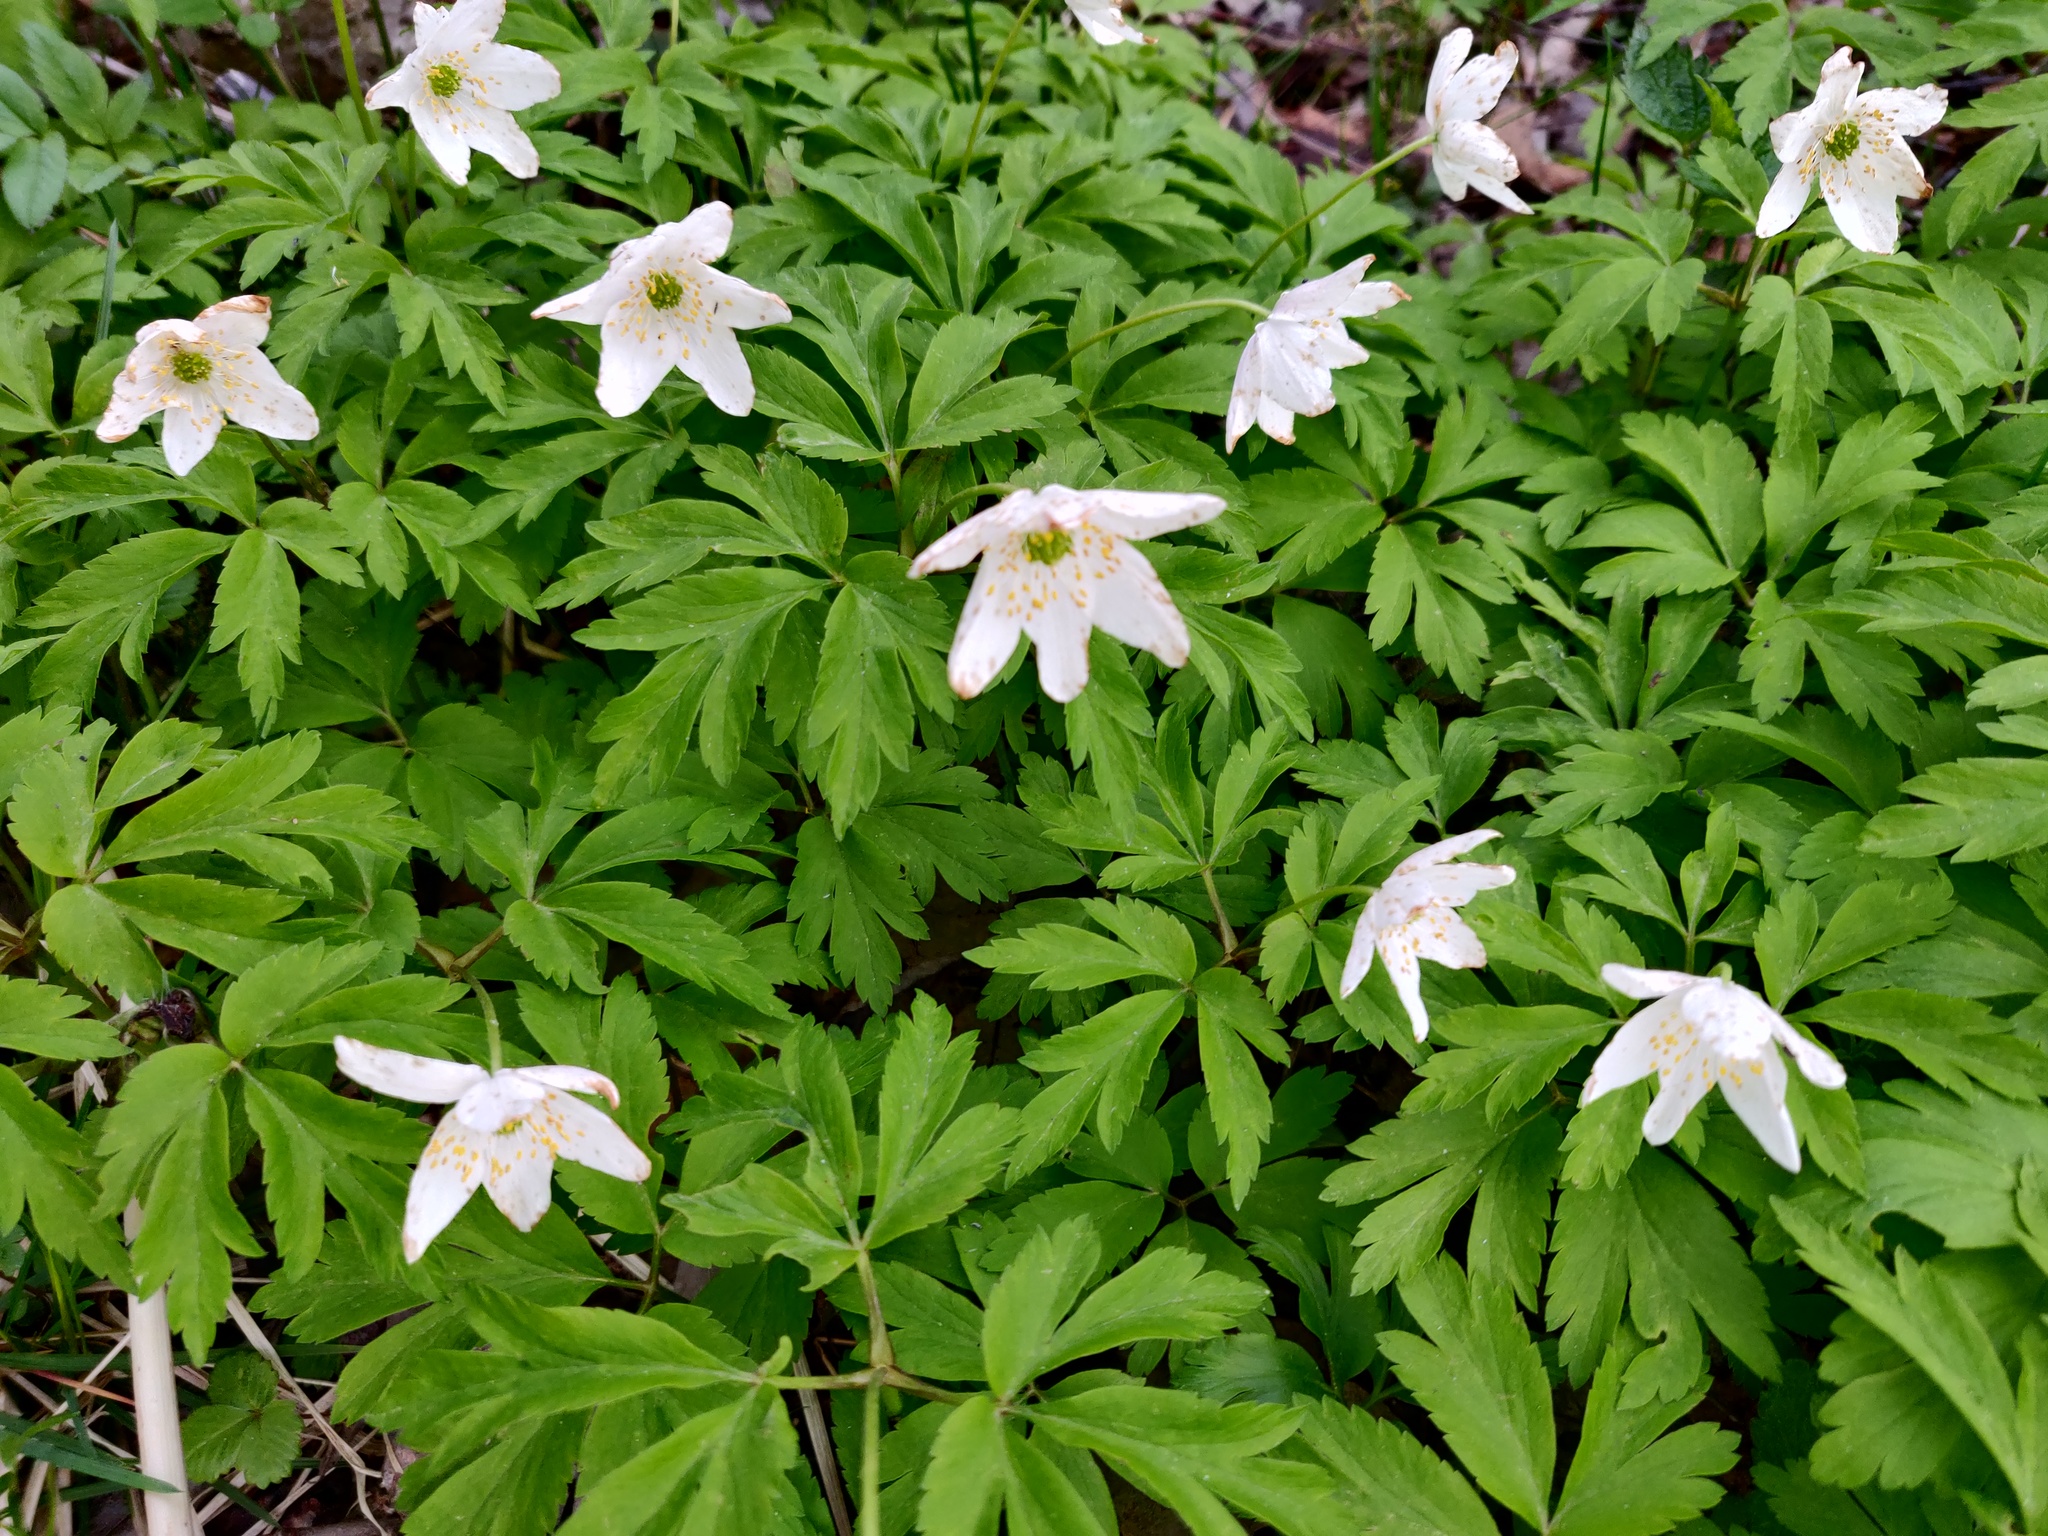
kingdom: Plantae
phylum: Tracheophyta
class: Magnoliopsida
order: Ranunculales
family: Ranunculaceae
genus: Anemone
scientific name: Anemone nemorosa
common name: Wood anemone
